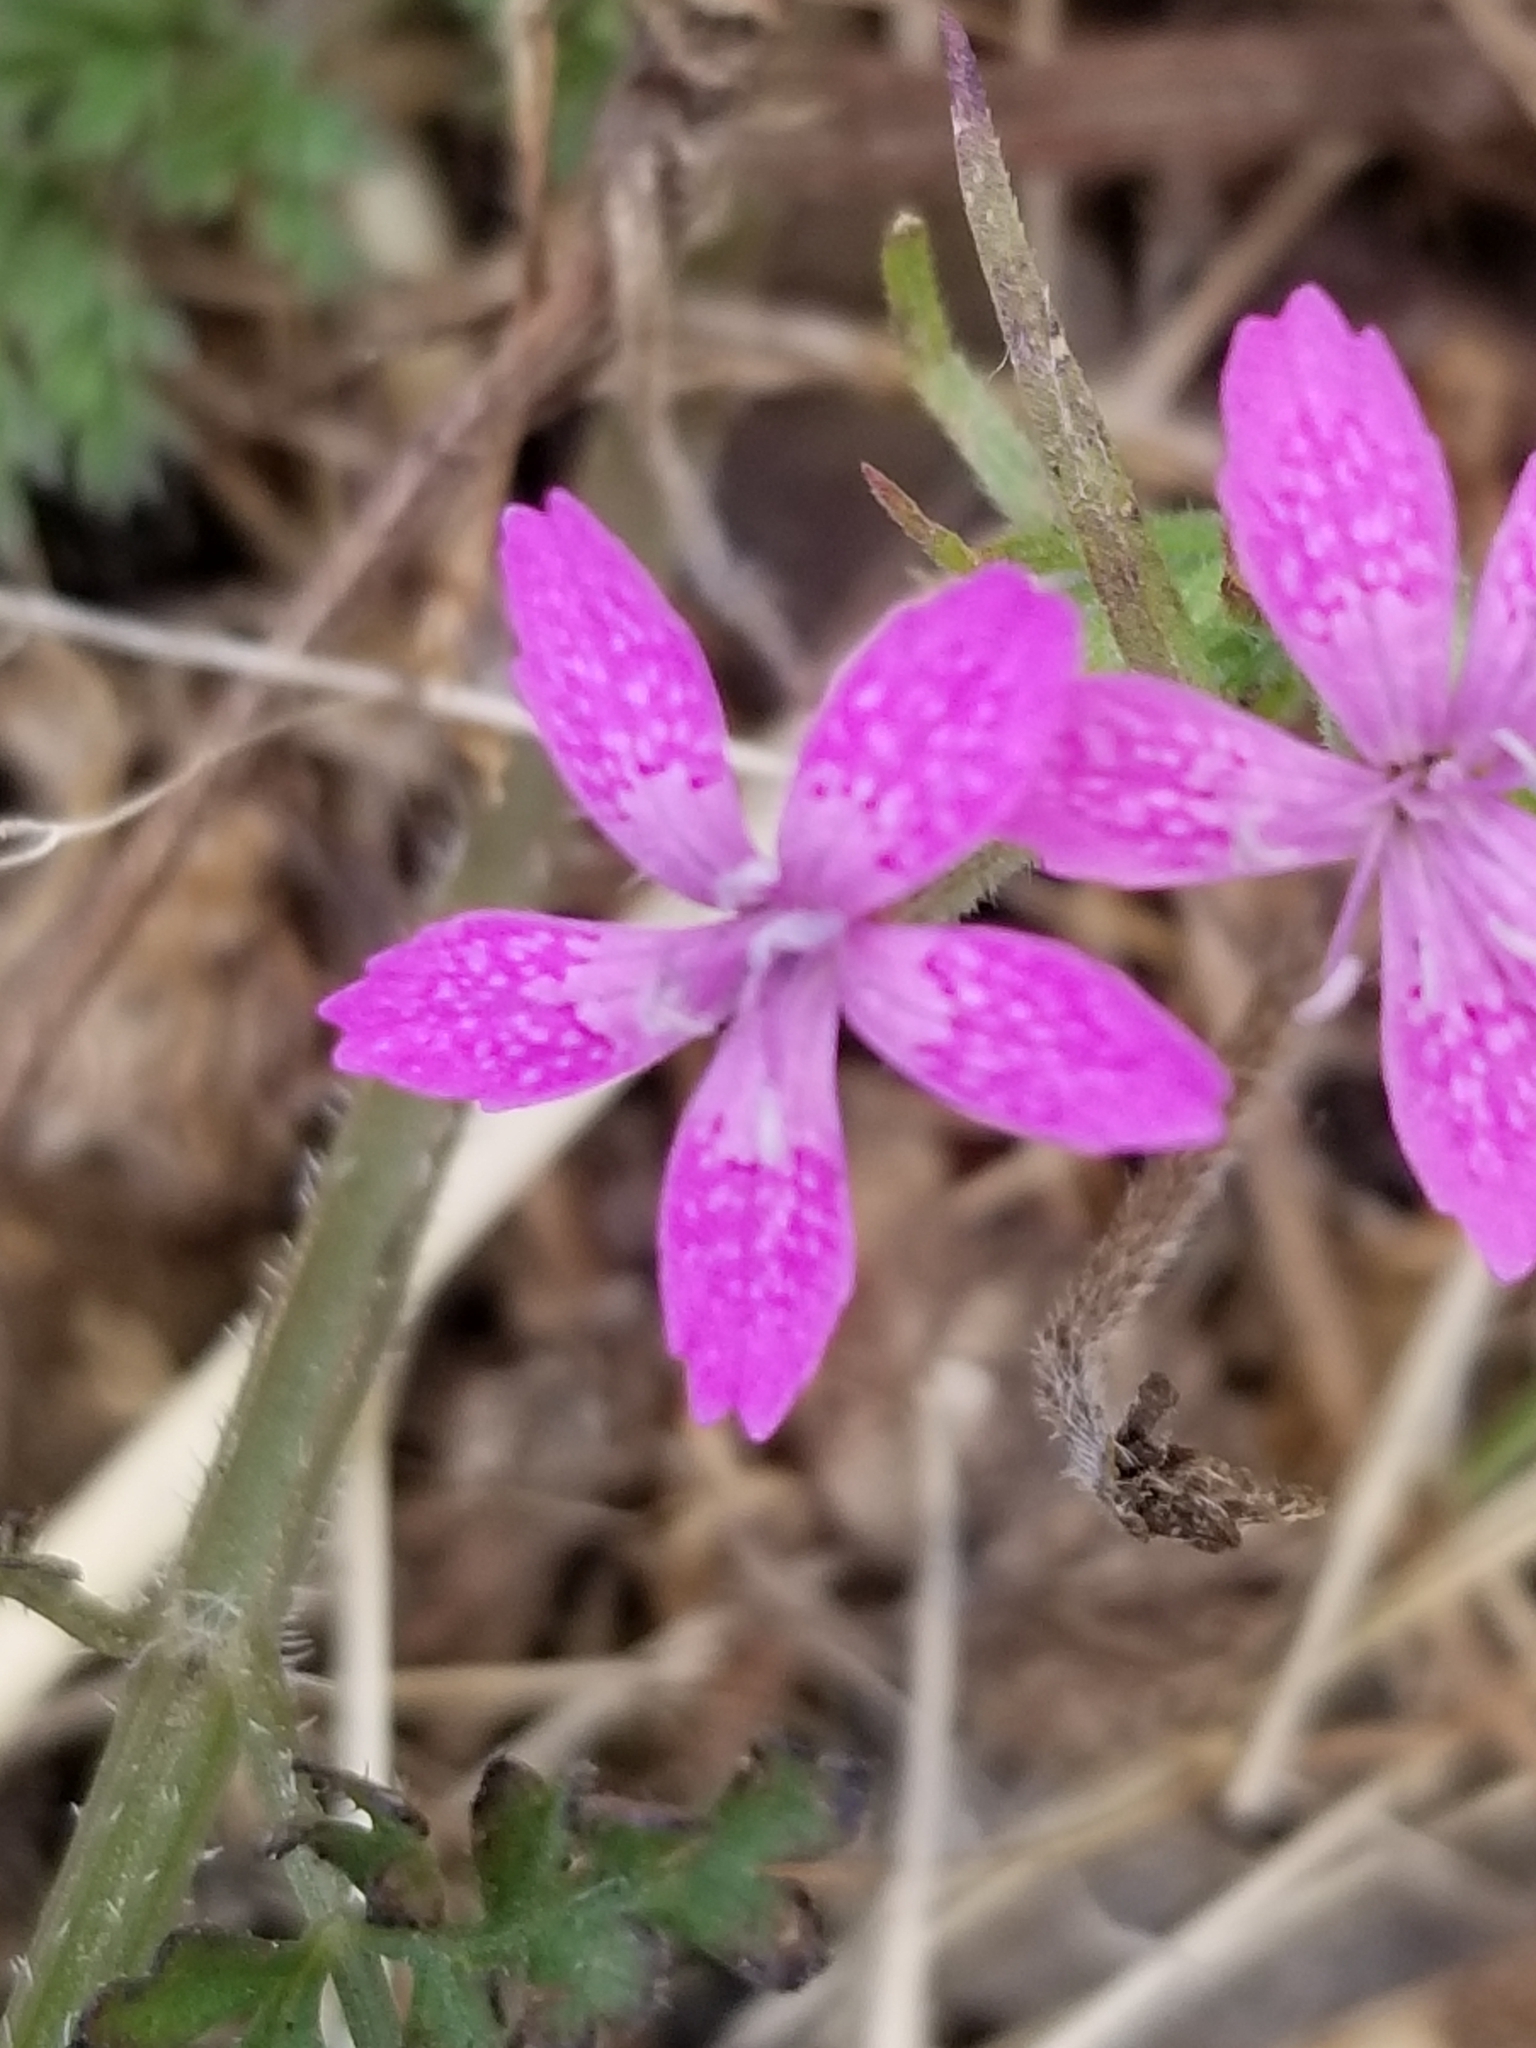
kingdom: Plantae
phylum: Tracheophyta
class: Magnoliopsida
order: Caryophyllales
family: Caryophyllaceae
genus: Dianthus
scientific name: Dianthus armeria
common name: Deptford pink
